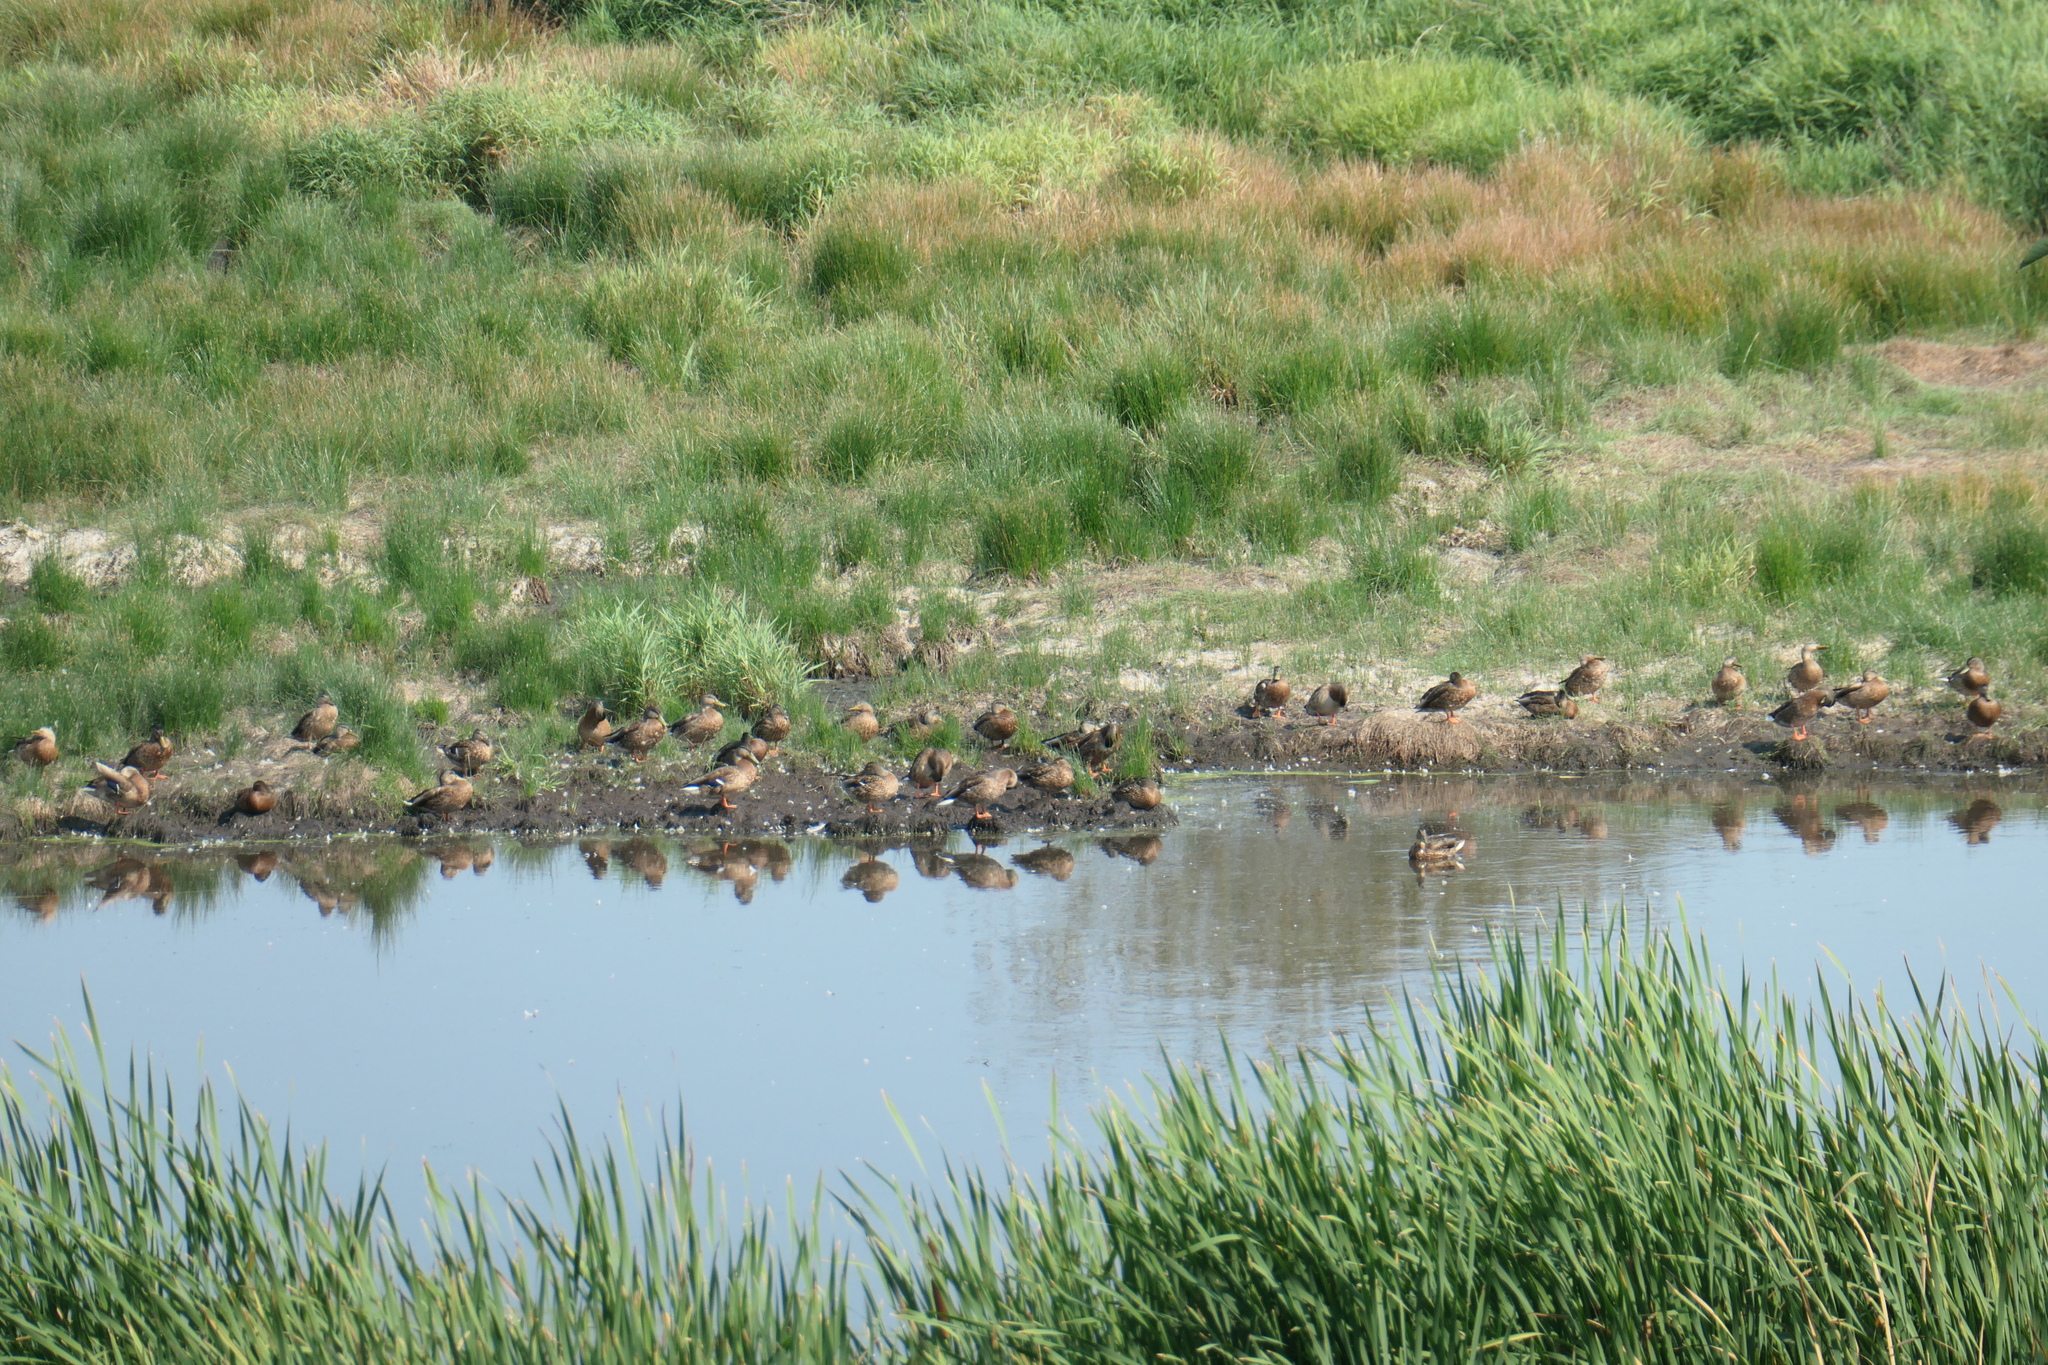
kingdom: Animalia
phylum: Chordata
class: Aves
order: Anseriformes
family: Anatidae
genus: Anas
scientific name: Anas platyrhynchos
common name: Mallard
